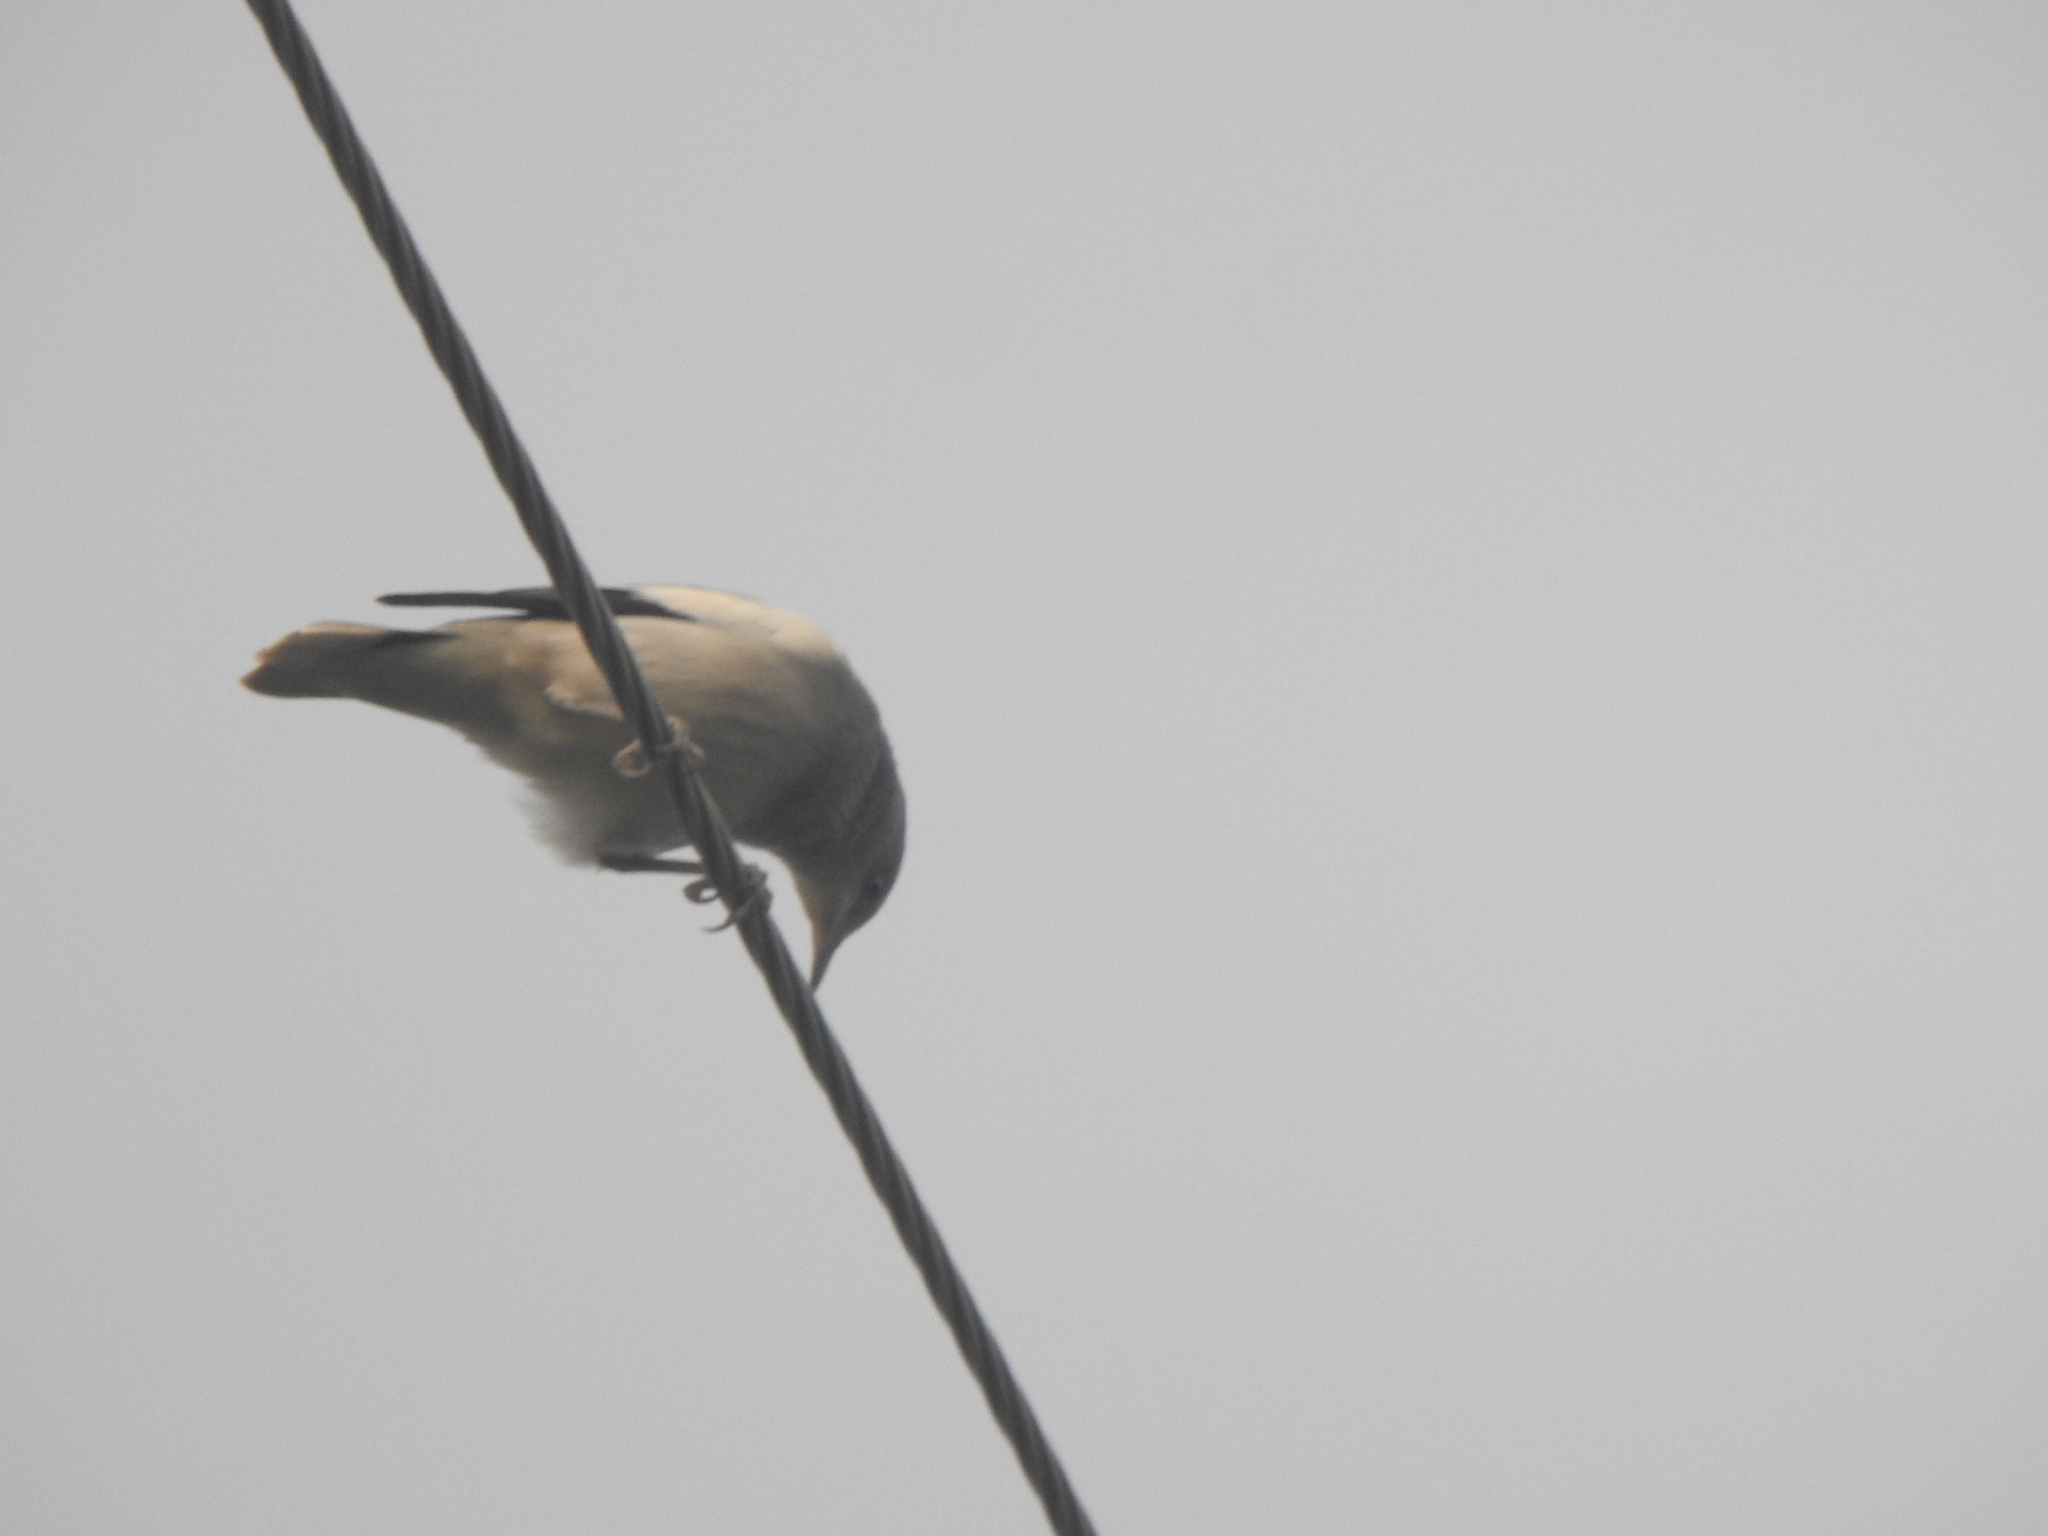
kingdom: Animalia
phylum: Chordata
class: Aves
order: Passeriformes
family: Sturnidae
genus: Sturnia
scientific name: Sturnia sinensis
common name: White-shouldered starling
